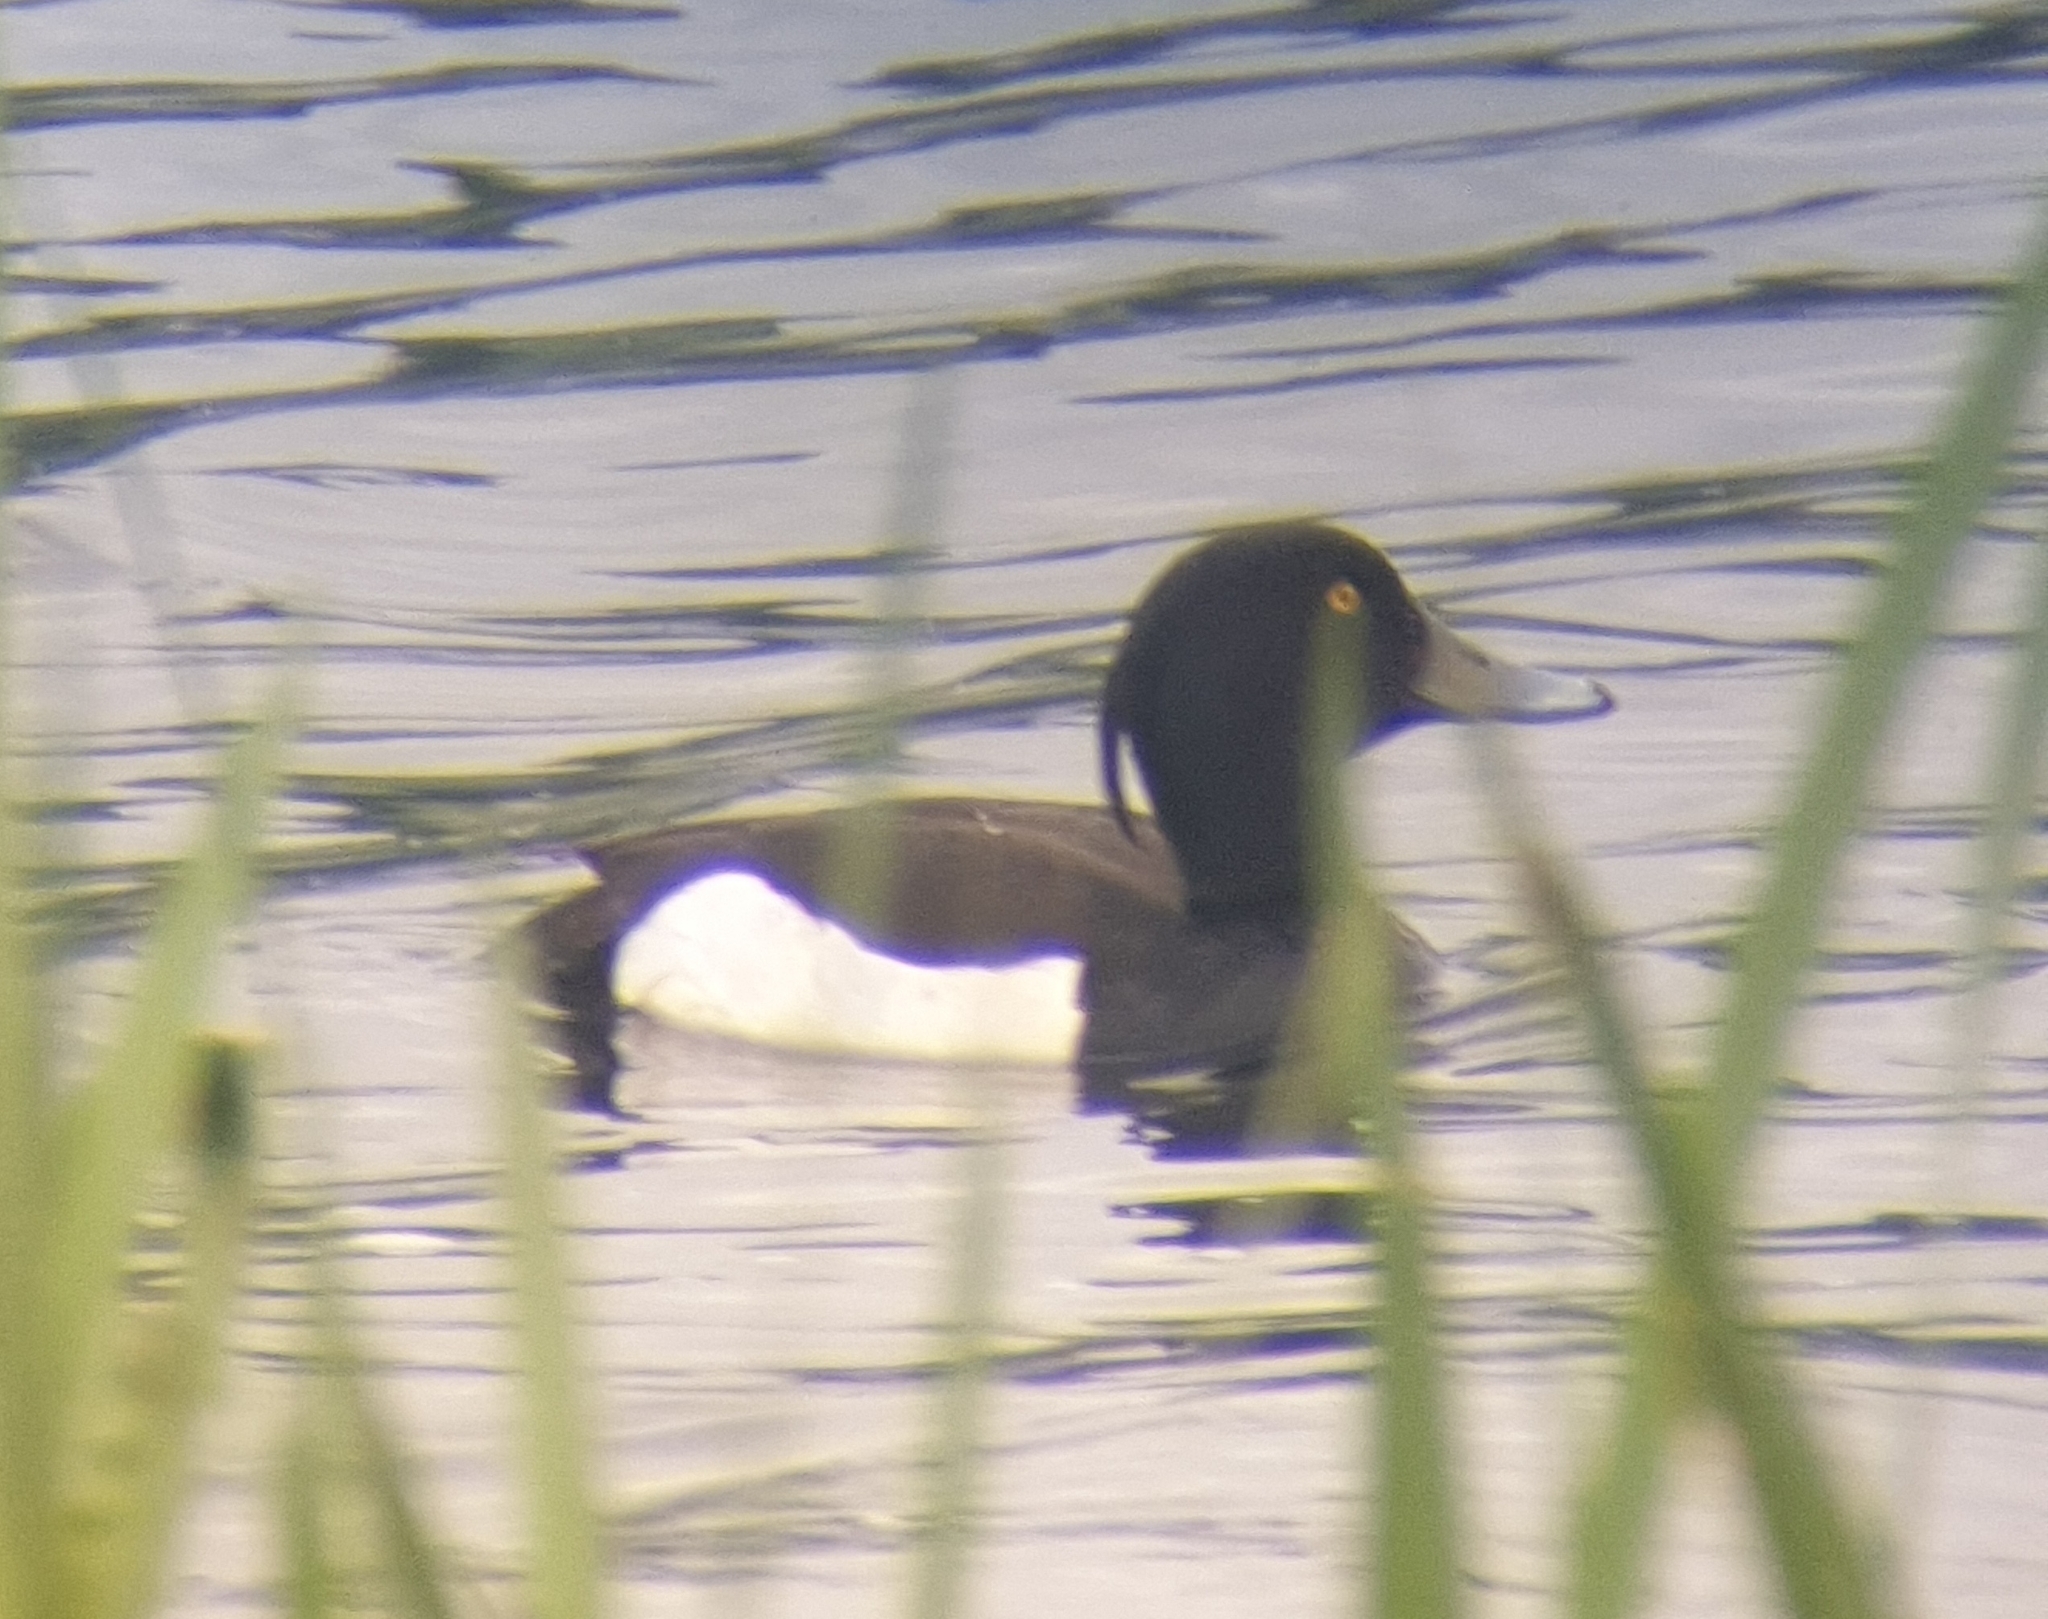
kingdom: Animalia
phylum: Chordata
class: Aves
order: Anseriformes
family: Anatidae
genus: Aythya
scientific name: Aythya fuligula
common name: Tufted duck
